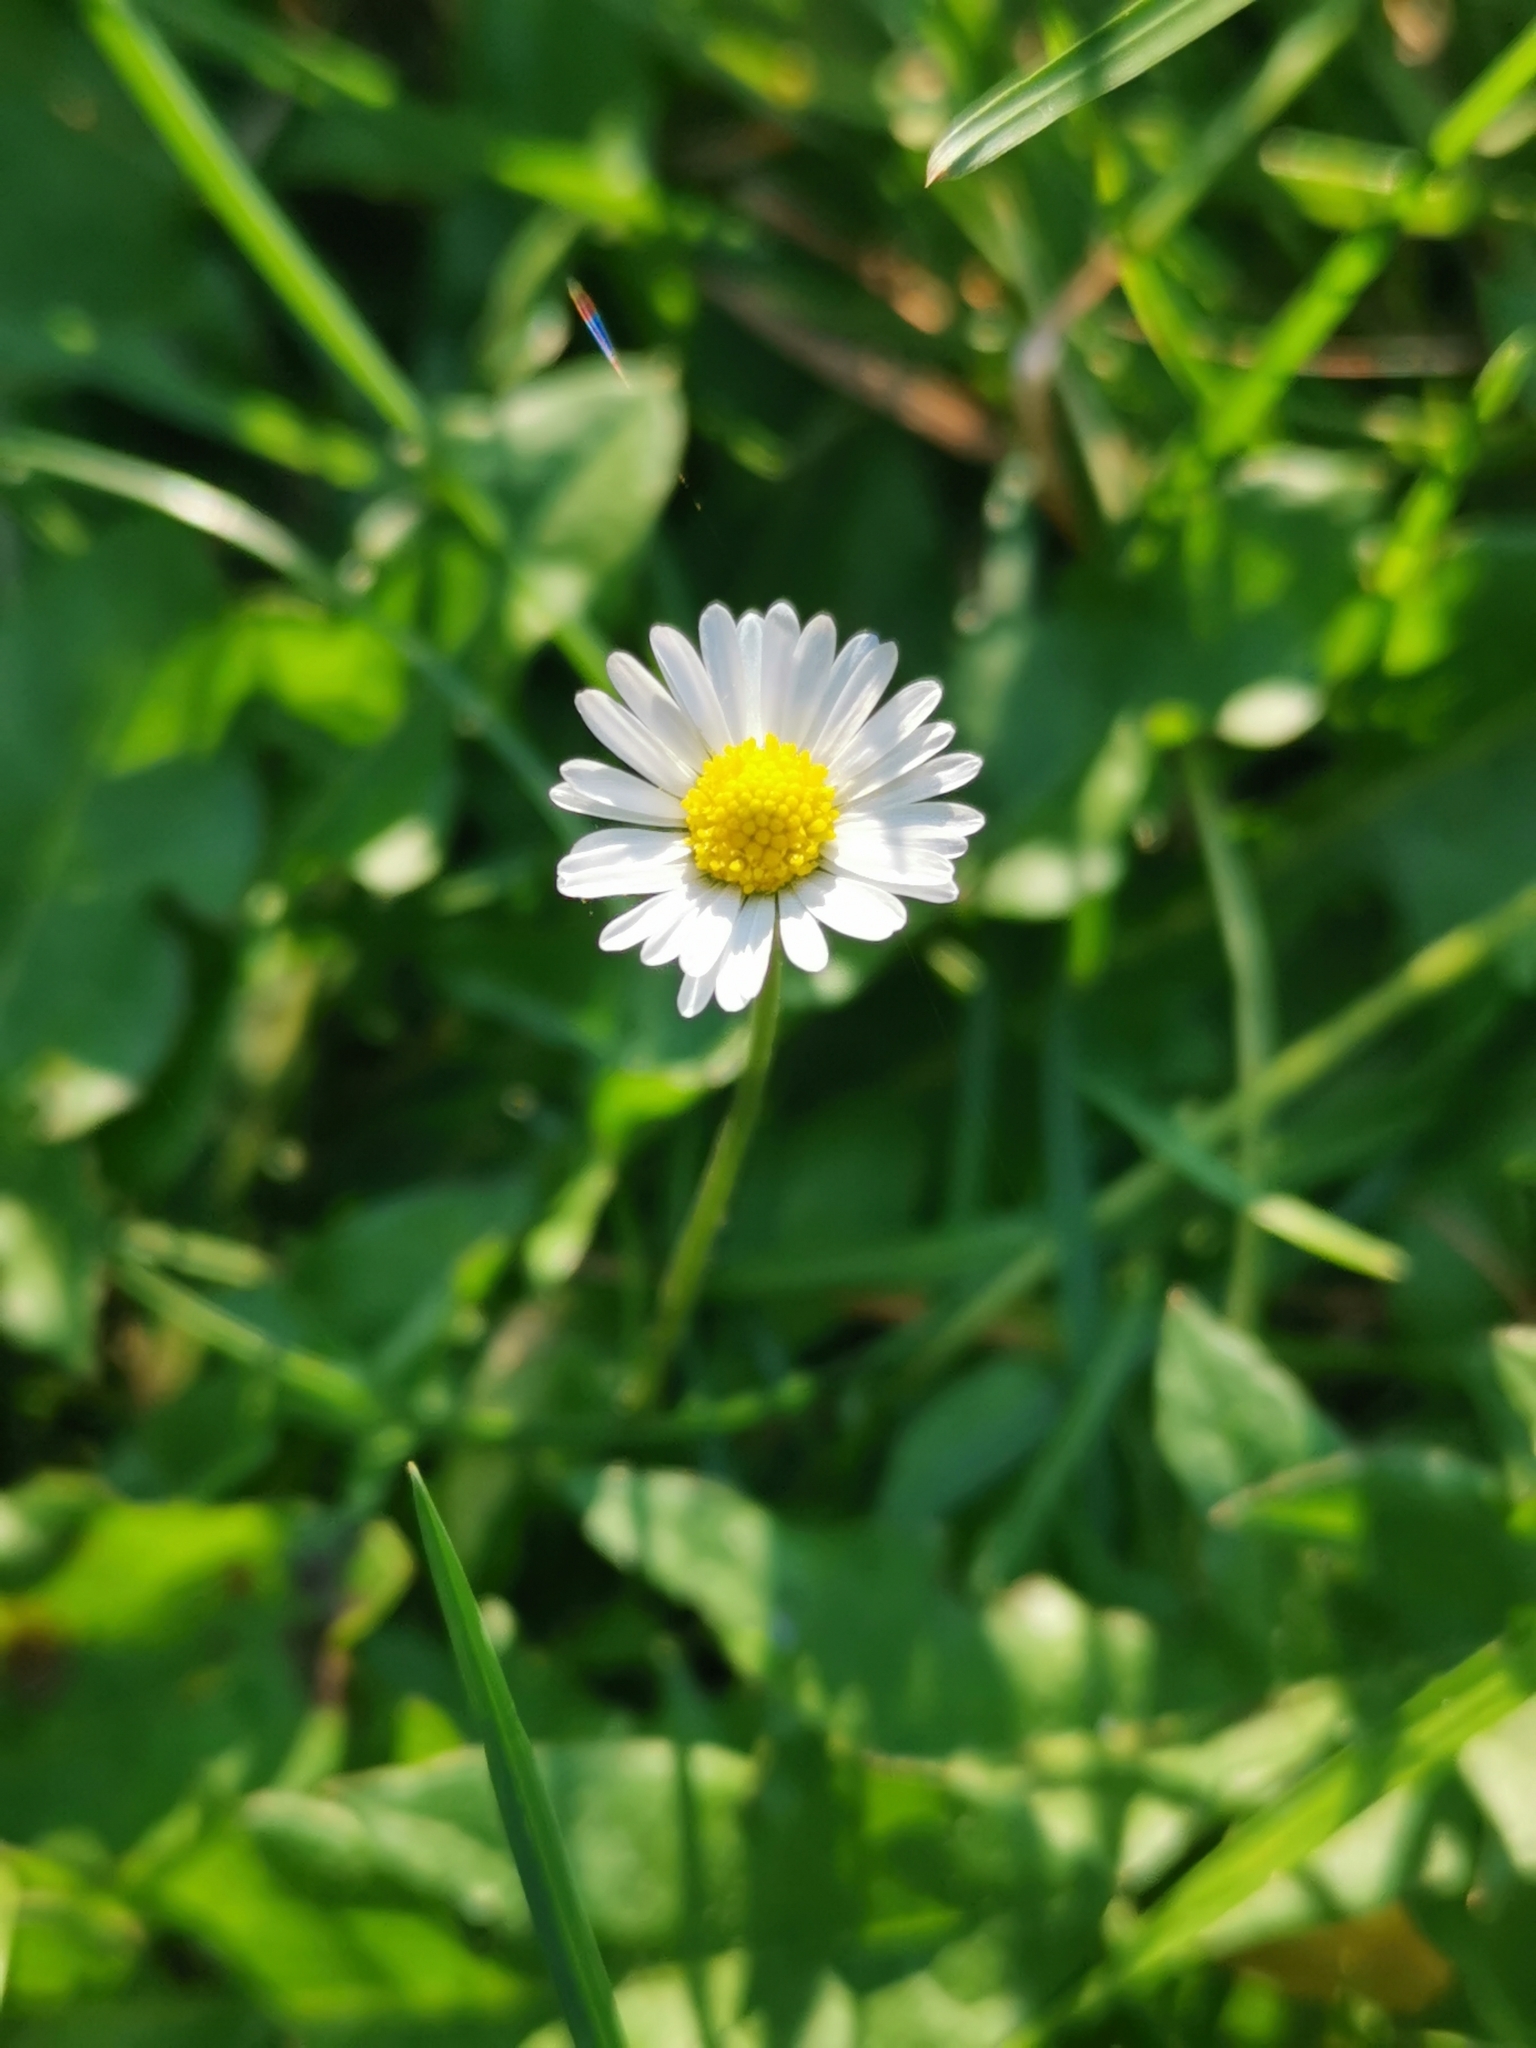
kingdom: Plantae
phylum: Tracheophyta
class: Magnoliopsida
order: Asterales
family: Asteraceae
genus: Bellis
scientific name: Bellis perennis
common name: Lawndaisy
